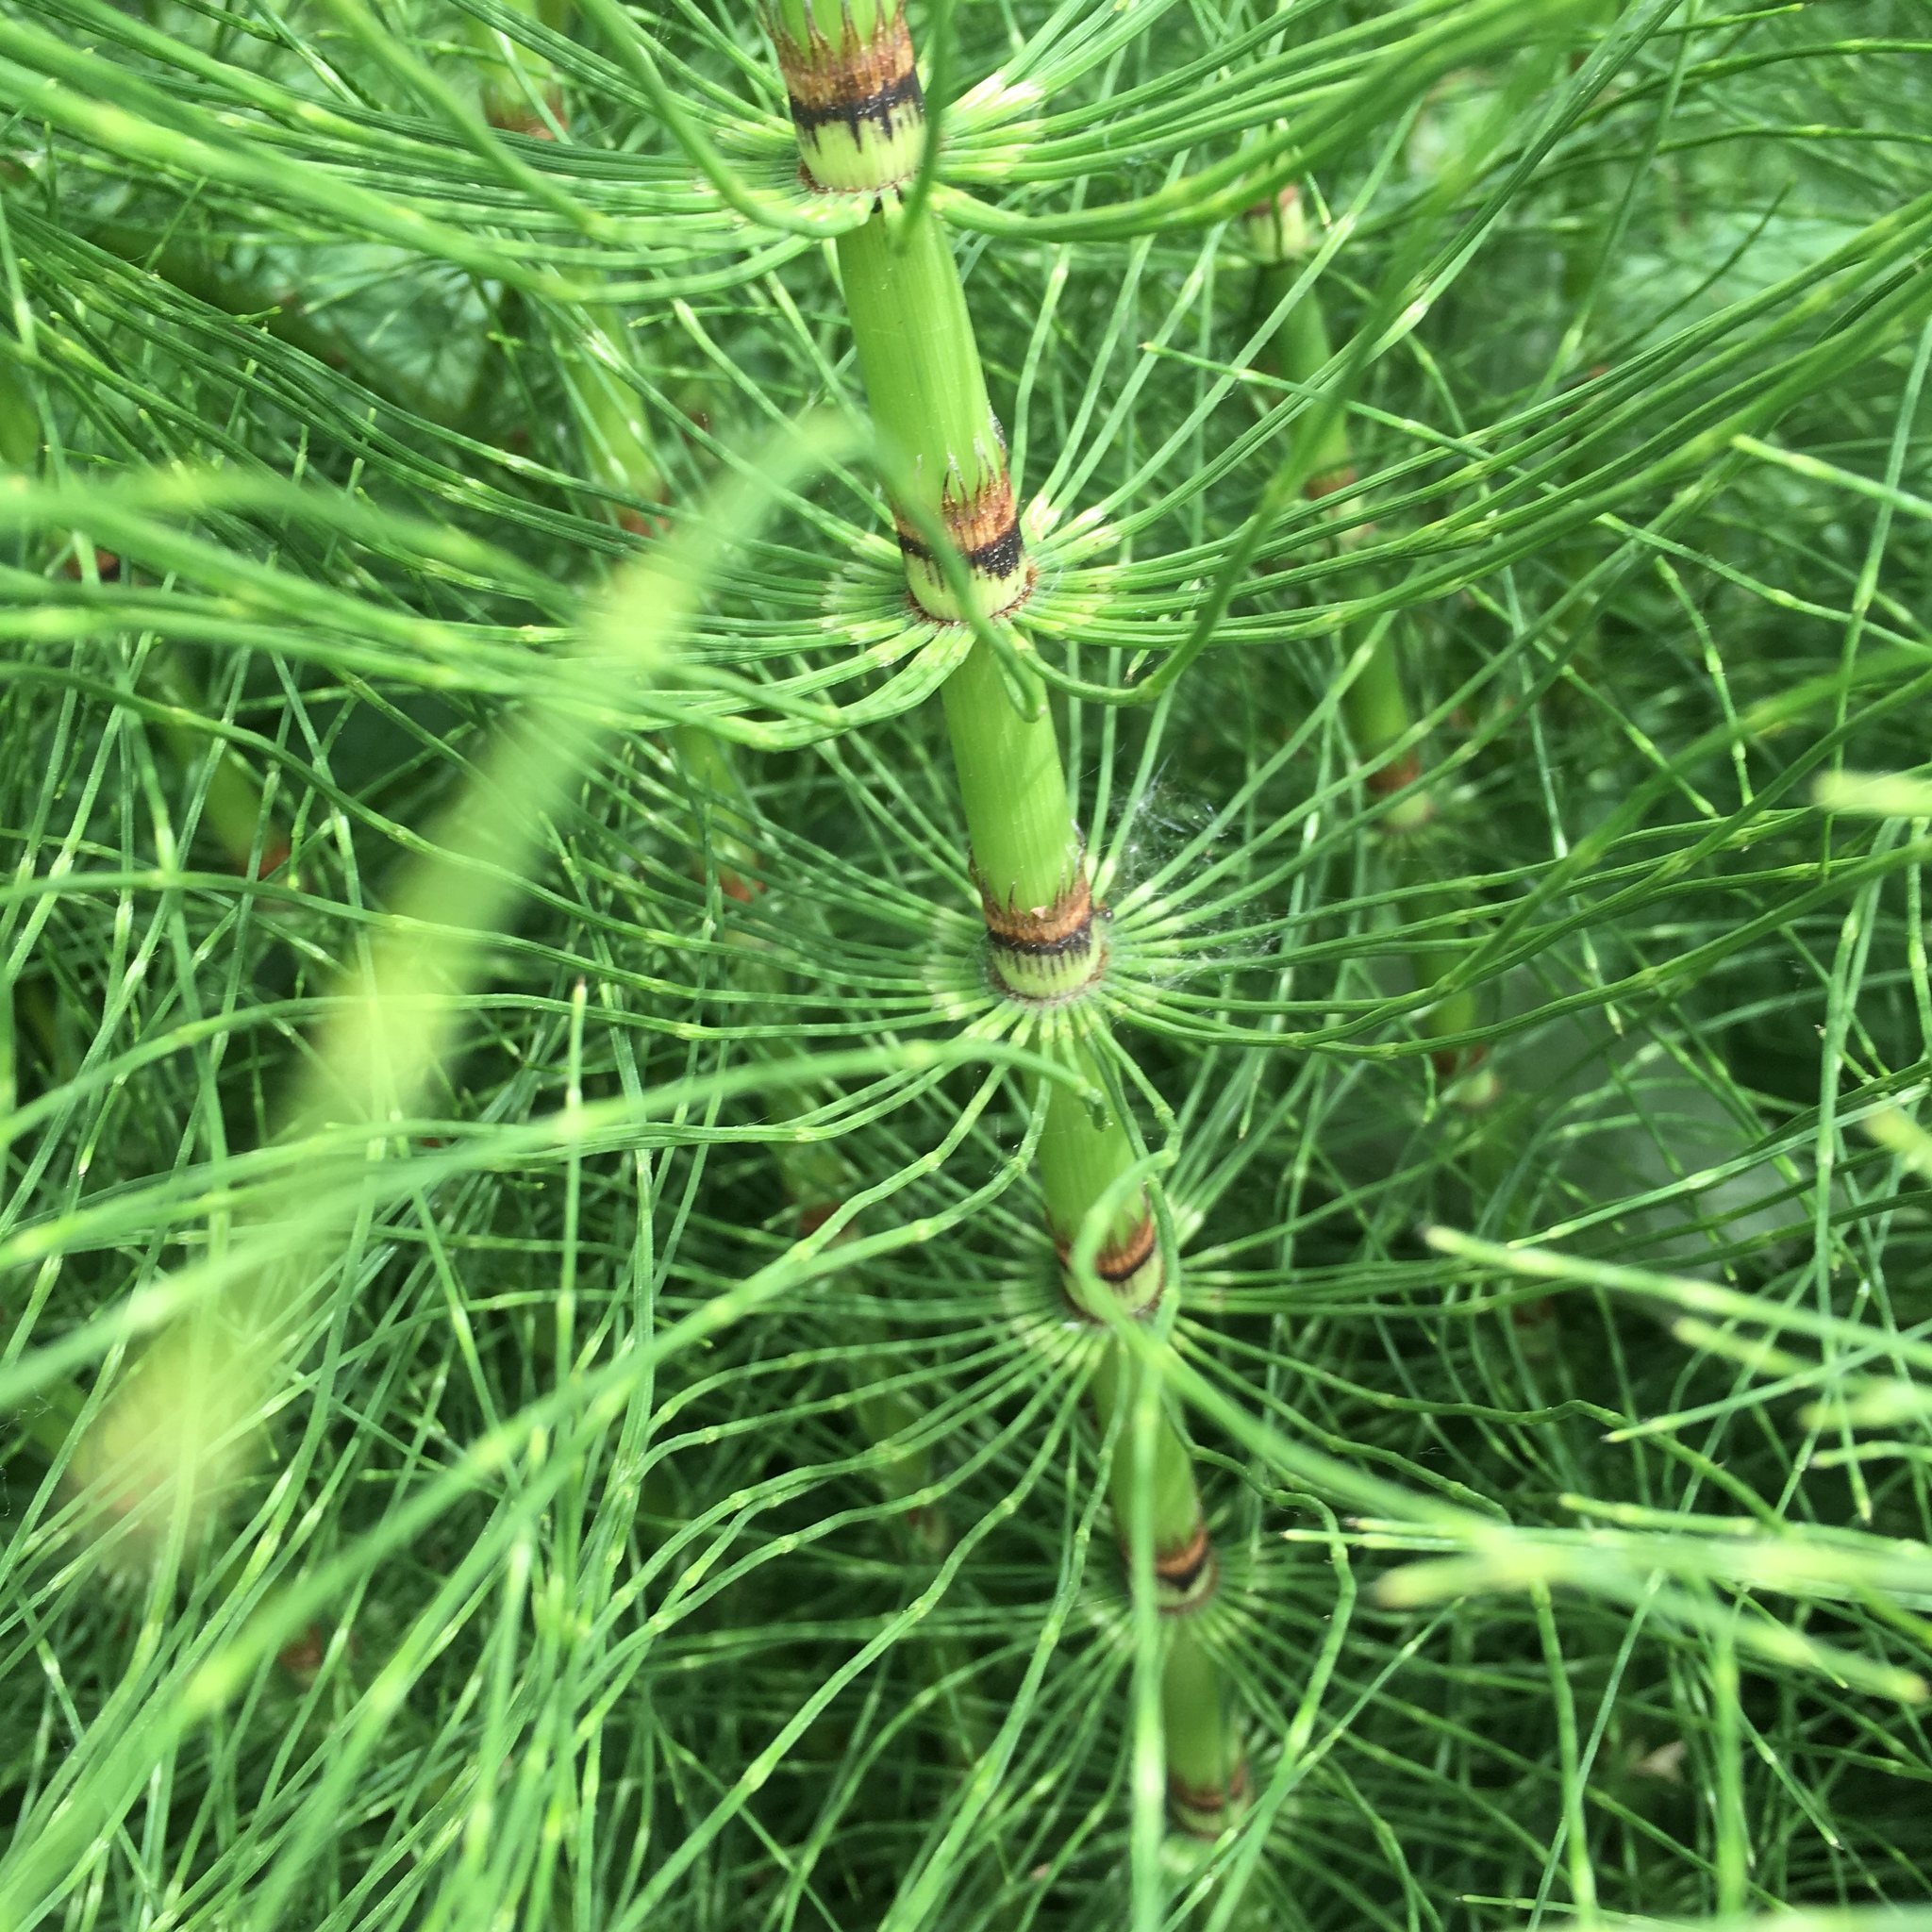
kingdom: Plantae
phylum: Tracheophyta
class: Polypodiopsida
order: Equisetales
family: Equisetaceae
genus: Equisetum
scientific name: Equisetum braunii
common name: Braun's horsetail
